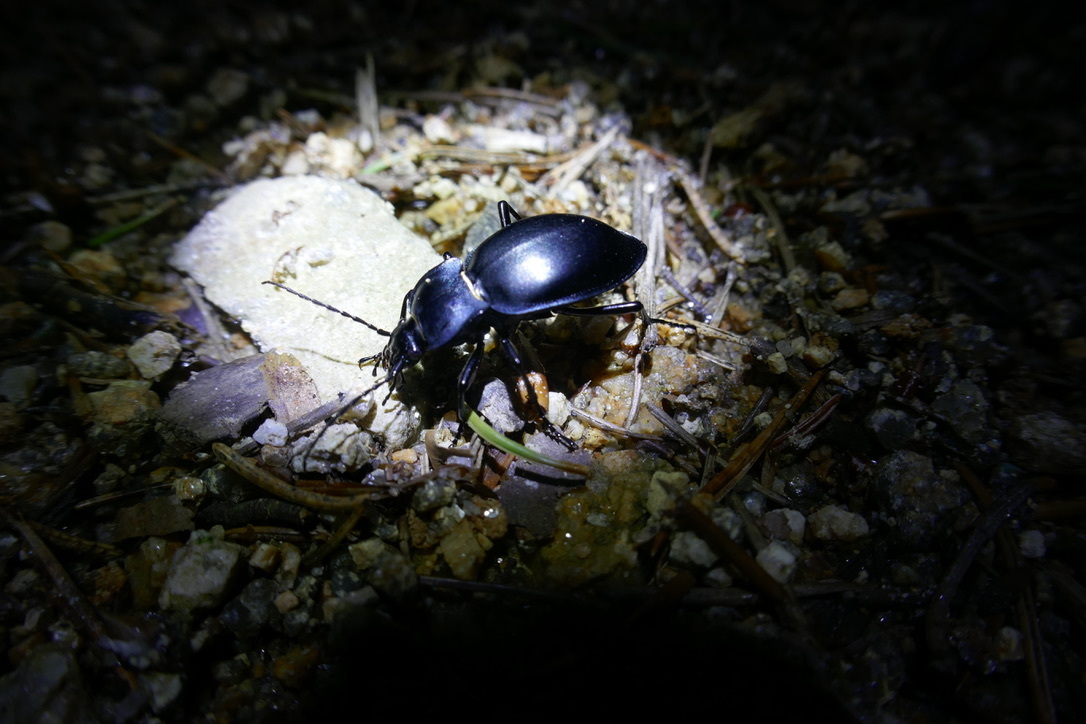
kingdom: Animalia
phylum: Arthropoda
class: Insecta
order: Coleoptera
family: Carabidae
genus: Carabus
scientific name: Carabus glabratus
